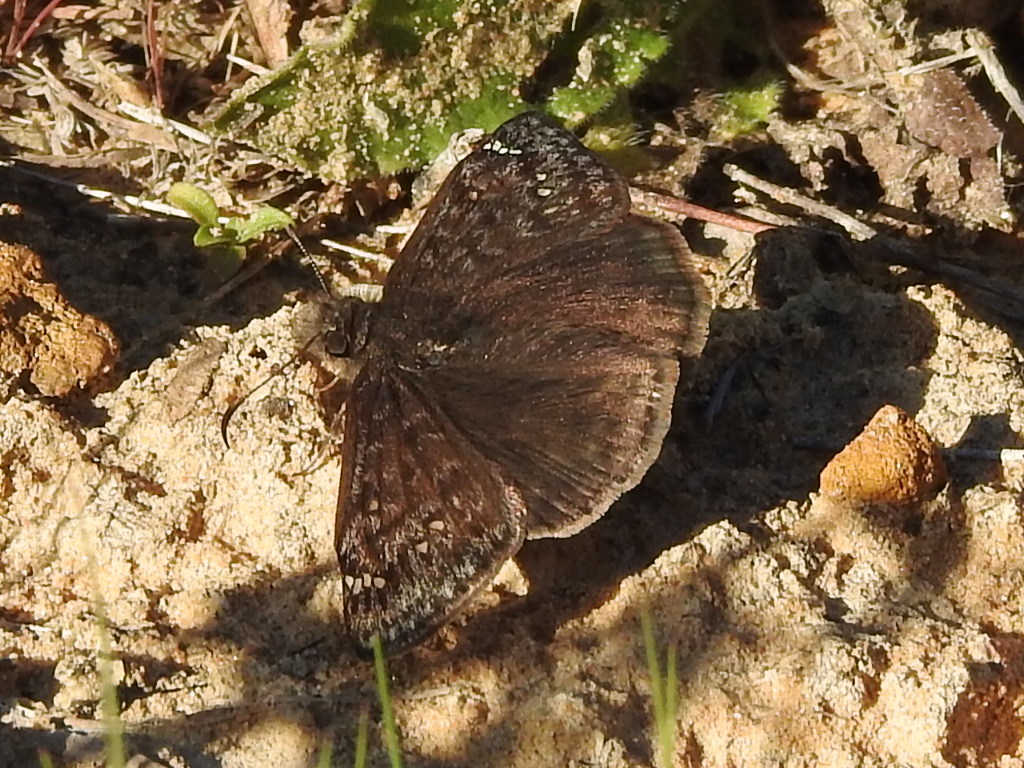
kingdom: Animalia
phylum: Arthropoda
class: Insecta
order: Lepidoptera
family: Hesperiidae
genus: Erynnis
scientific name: Erynnis juvenalis
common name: Juvenal's duskywing
